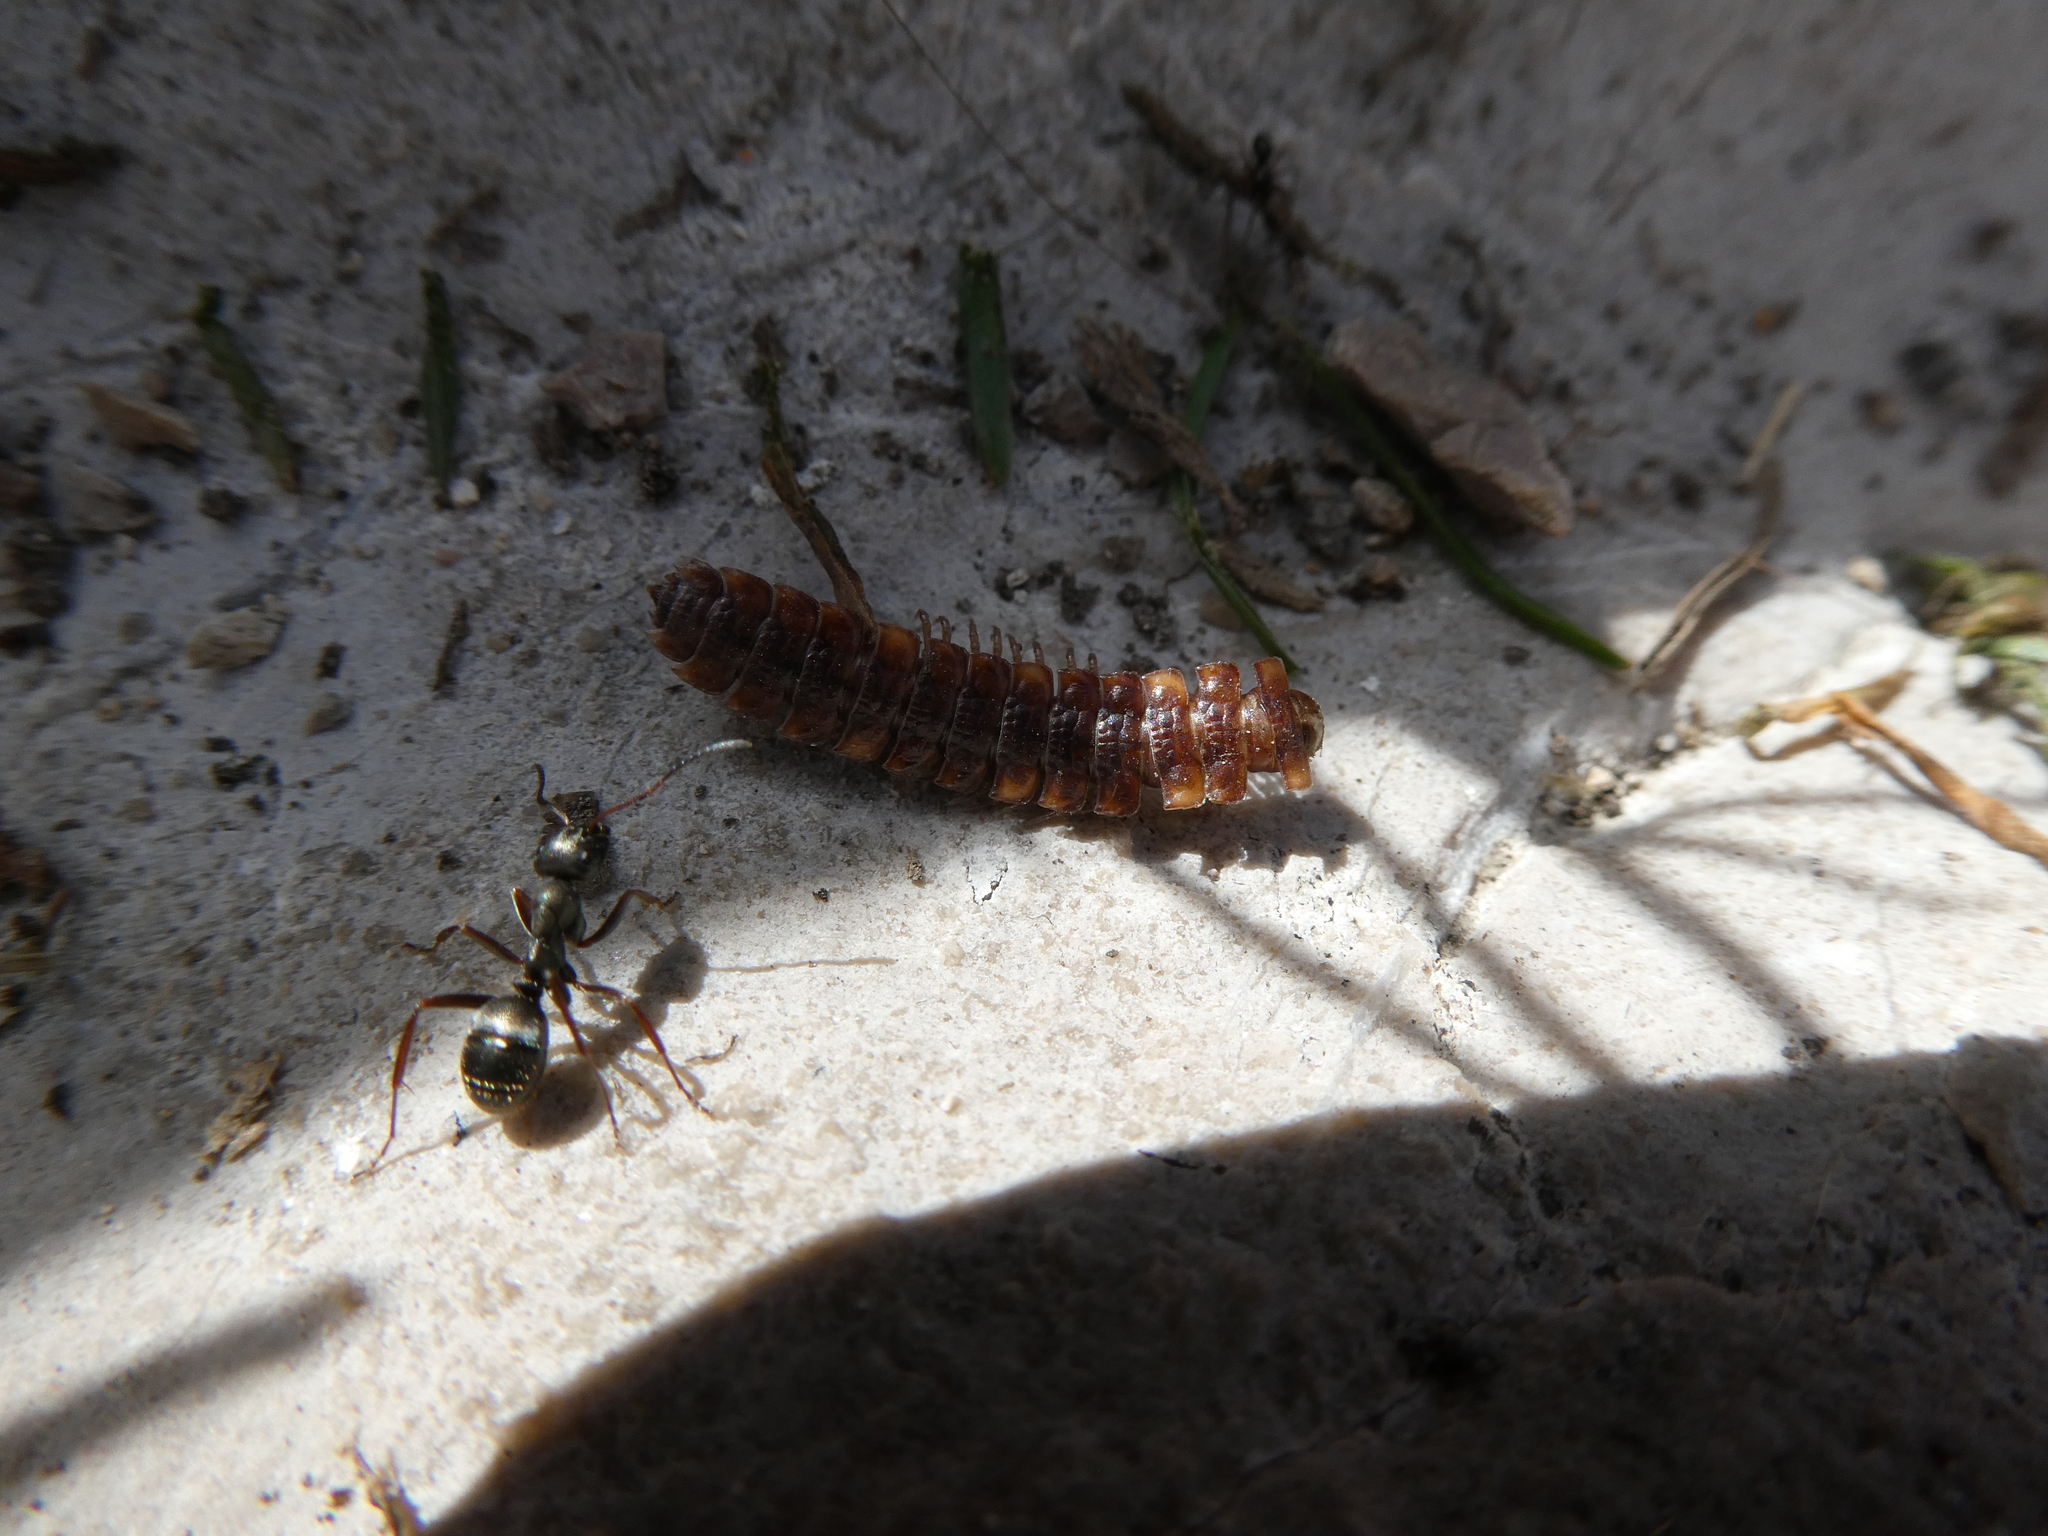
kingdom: Animalia
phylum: Arthropoda
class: Diplopoda
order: Polydesmida
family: Polydesmidae
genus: Polydesmus
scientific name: Polydesmus complanatus
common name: Flat-backed millipede
